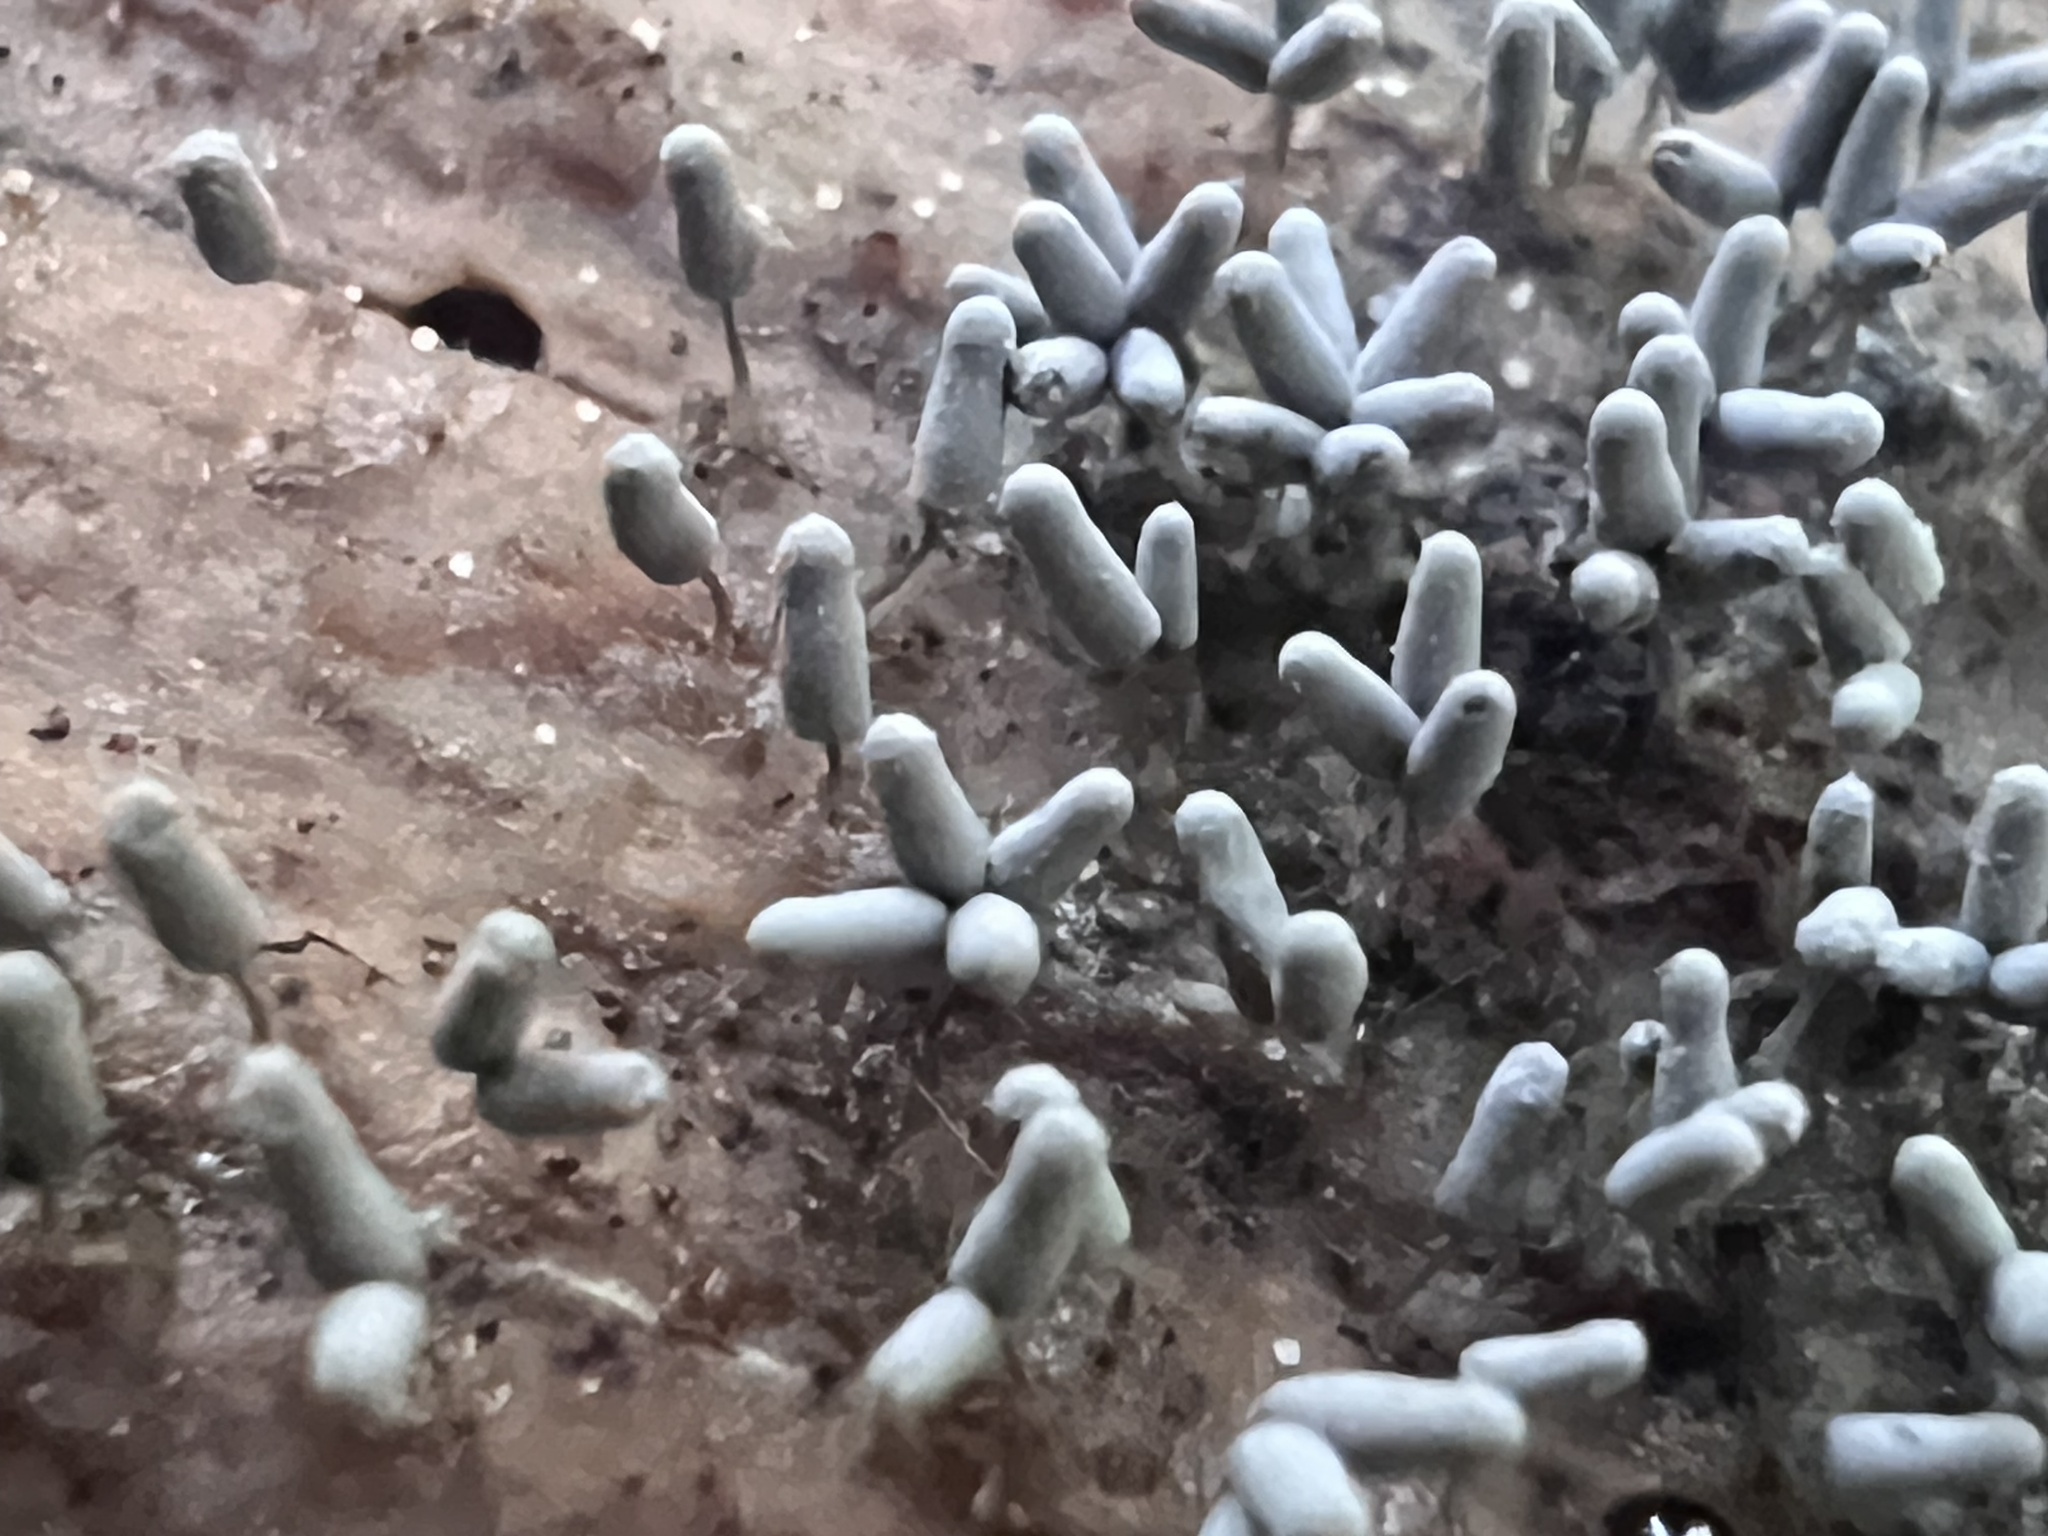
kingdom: Protozoa
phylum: Mycetozoa
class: Myxomycetes
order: Trichiales
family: Arcyriaceae
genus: Arcyria
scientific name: Arcyria cinerea
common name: White carnival candy slime mold
